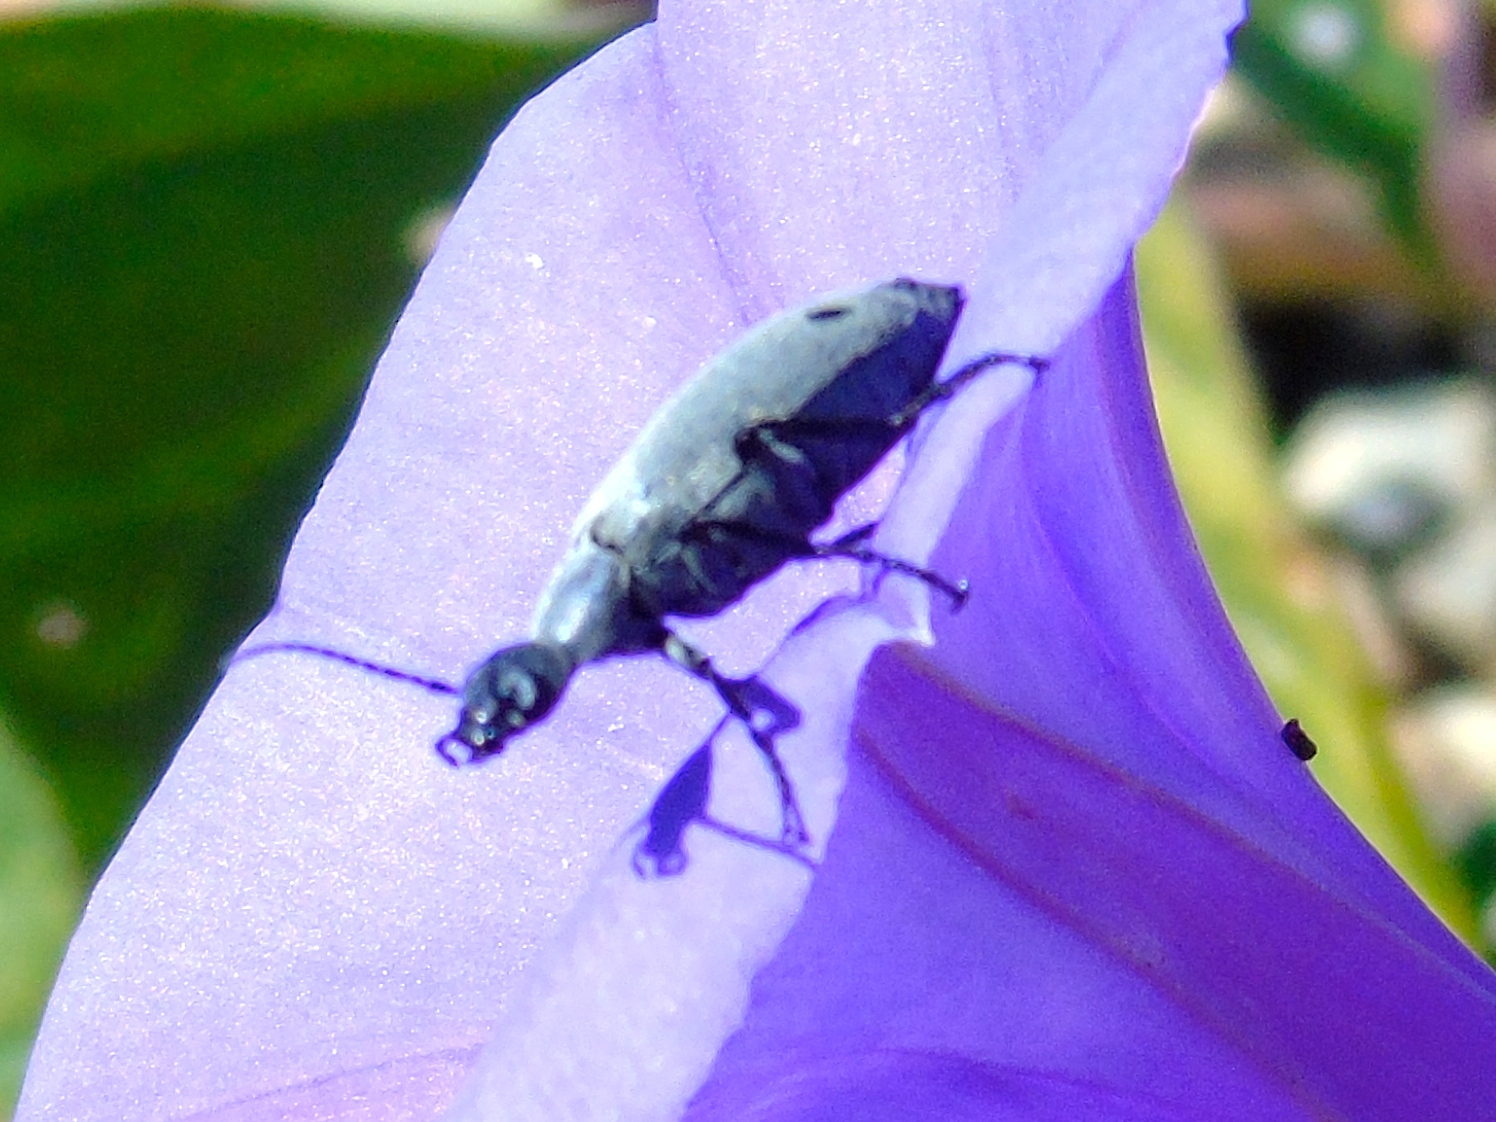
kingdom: Animalia
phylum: Arthropoda
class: Insecta
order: Coleoptera
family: Meloidae
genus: Epicauta
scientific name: Epicauta
